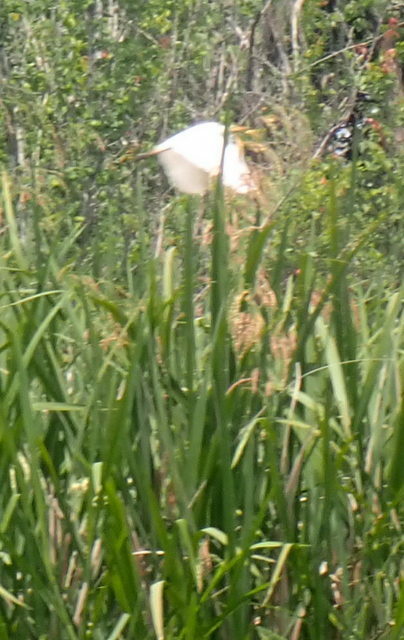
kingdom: Animalia
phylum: Chordata
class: Aves
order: Pelecaniformes
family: Ardeidae
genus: Ardea
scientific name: Ardea alba
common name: Great egret
